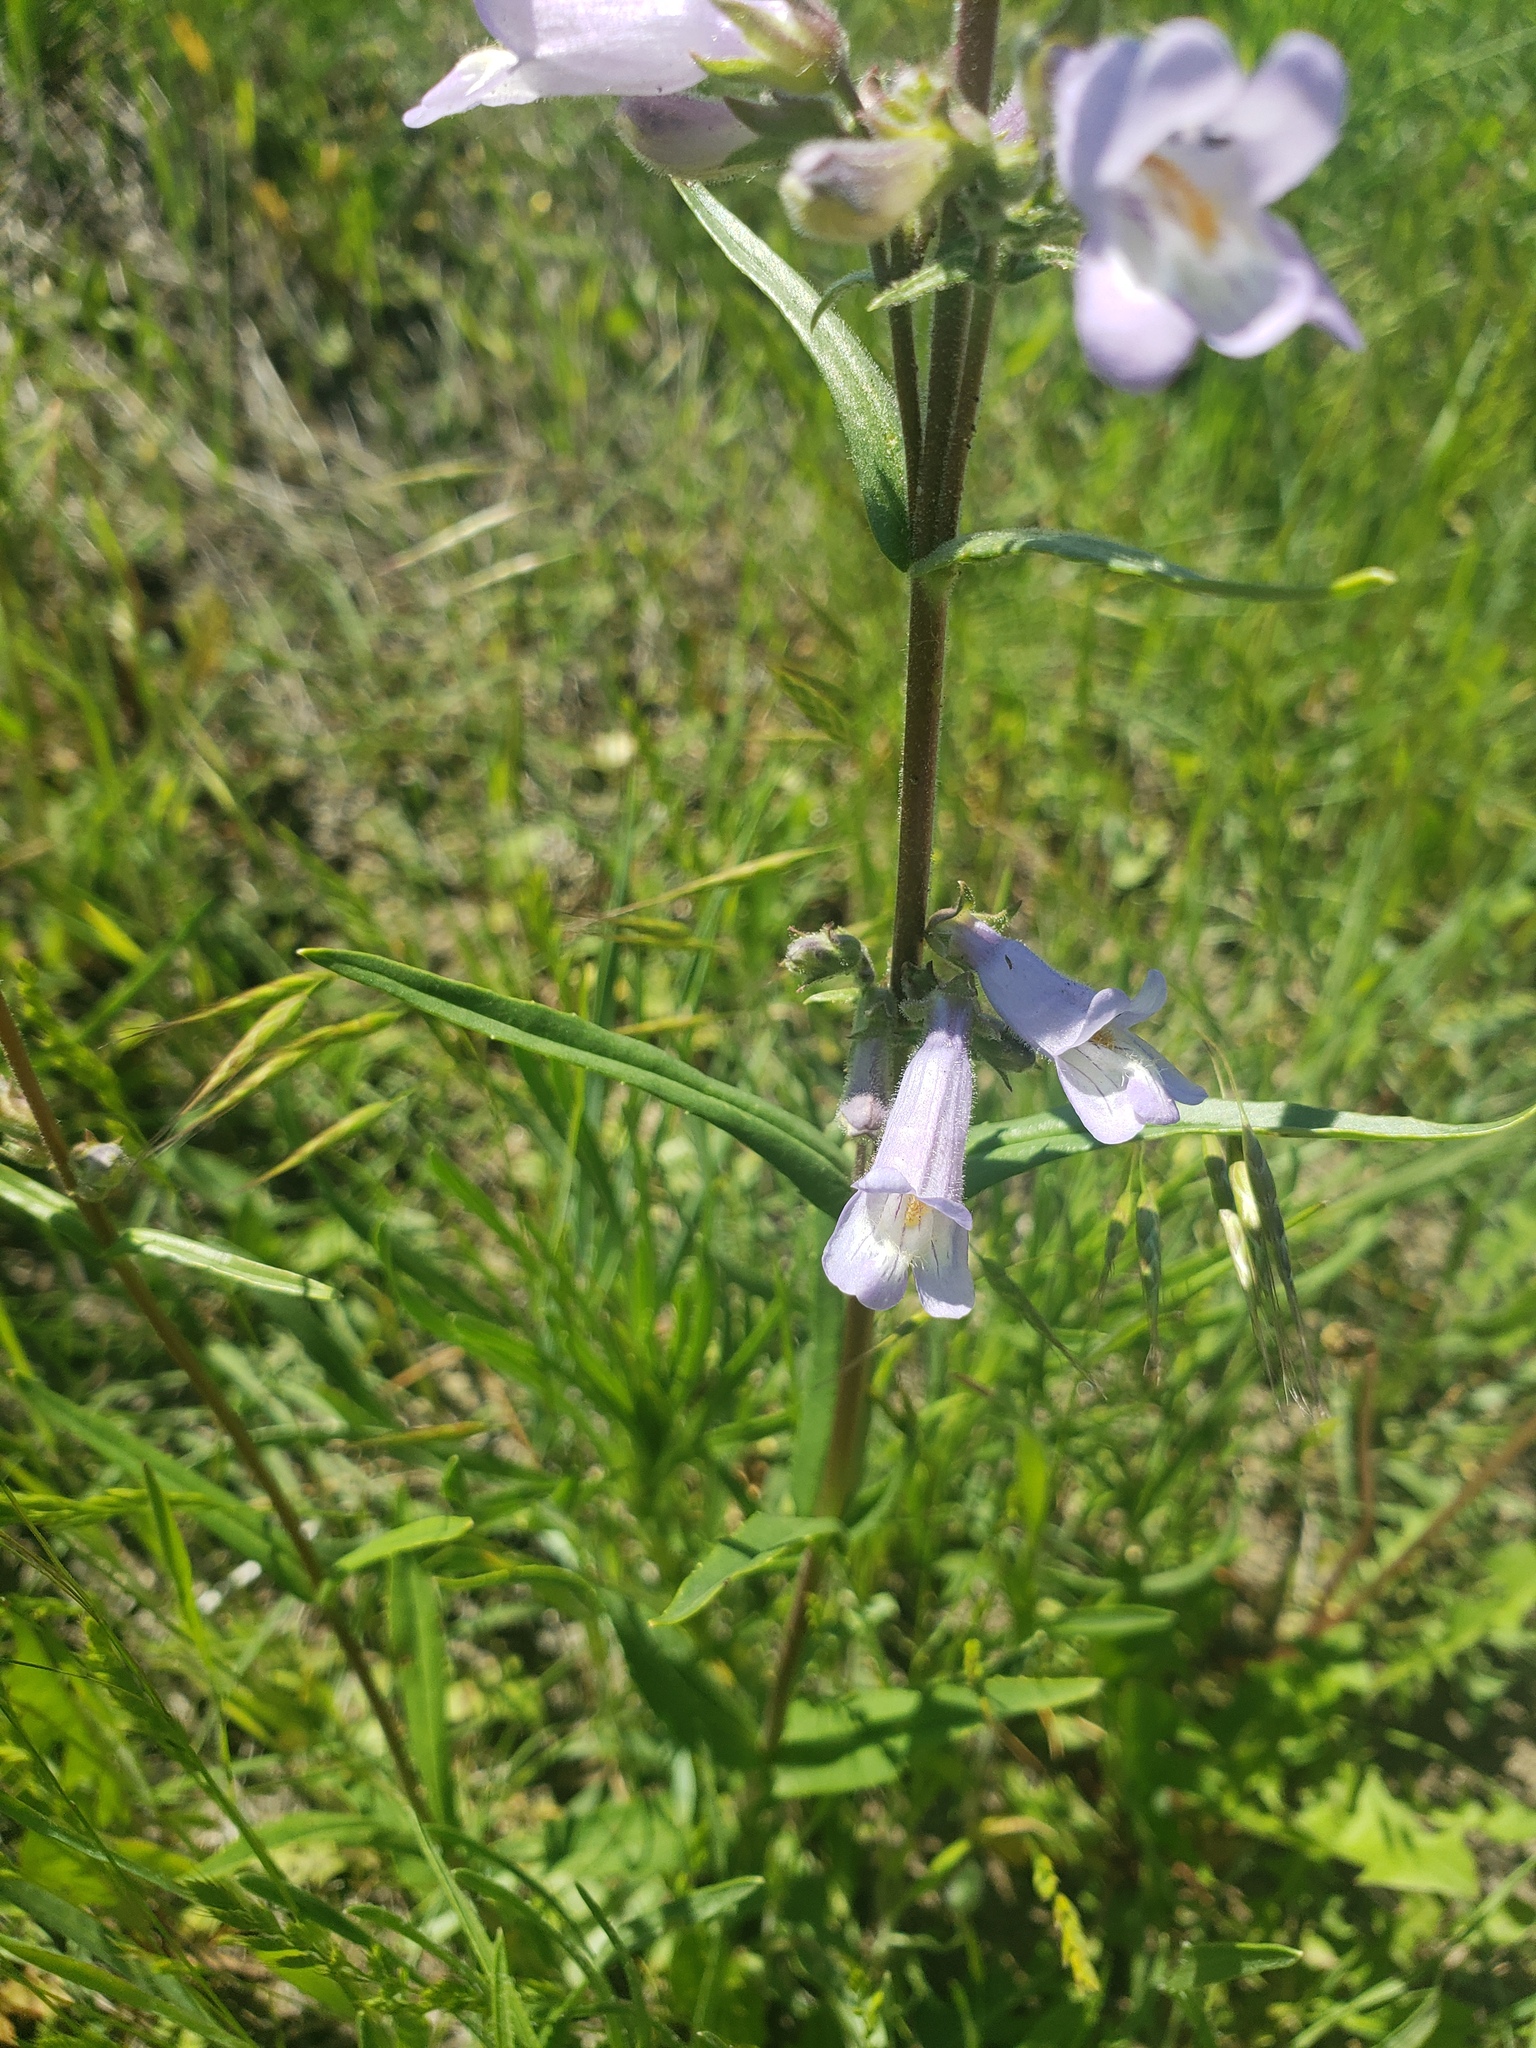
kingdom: Plantae
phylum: Tracheophyta
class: Magnoliopsida
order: Lamiales
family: Plantaginaceae
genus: Penstemon
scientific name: Penstemon gracilis
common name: Slender beardtongue
